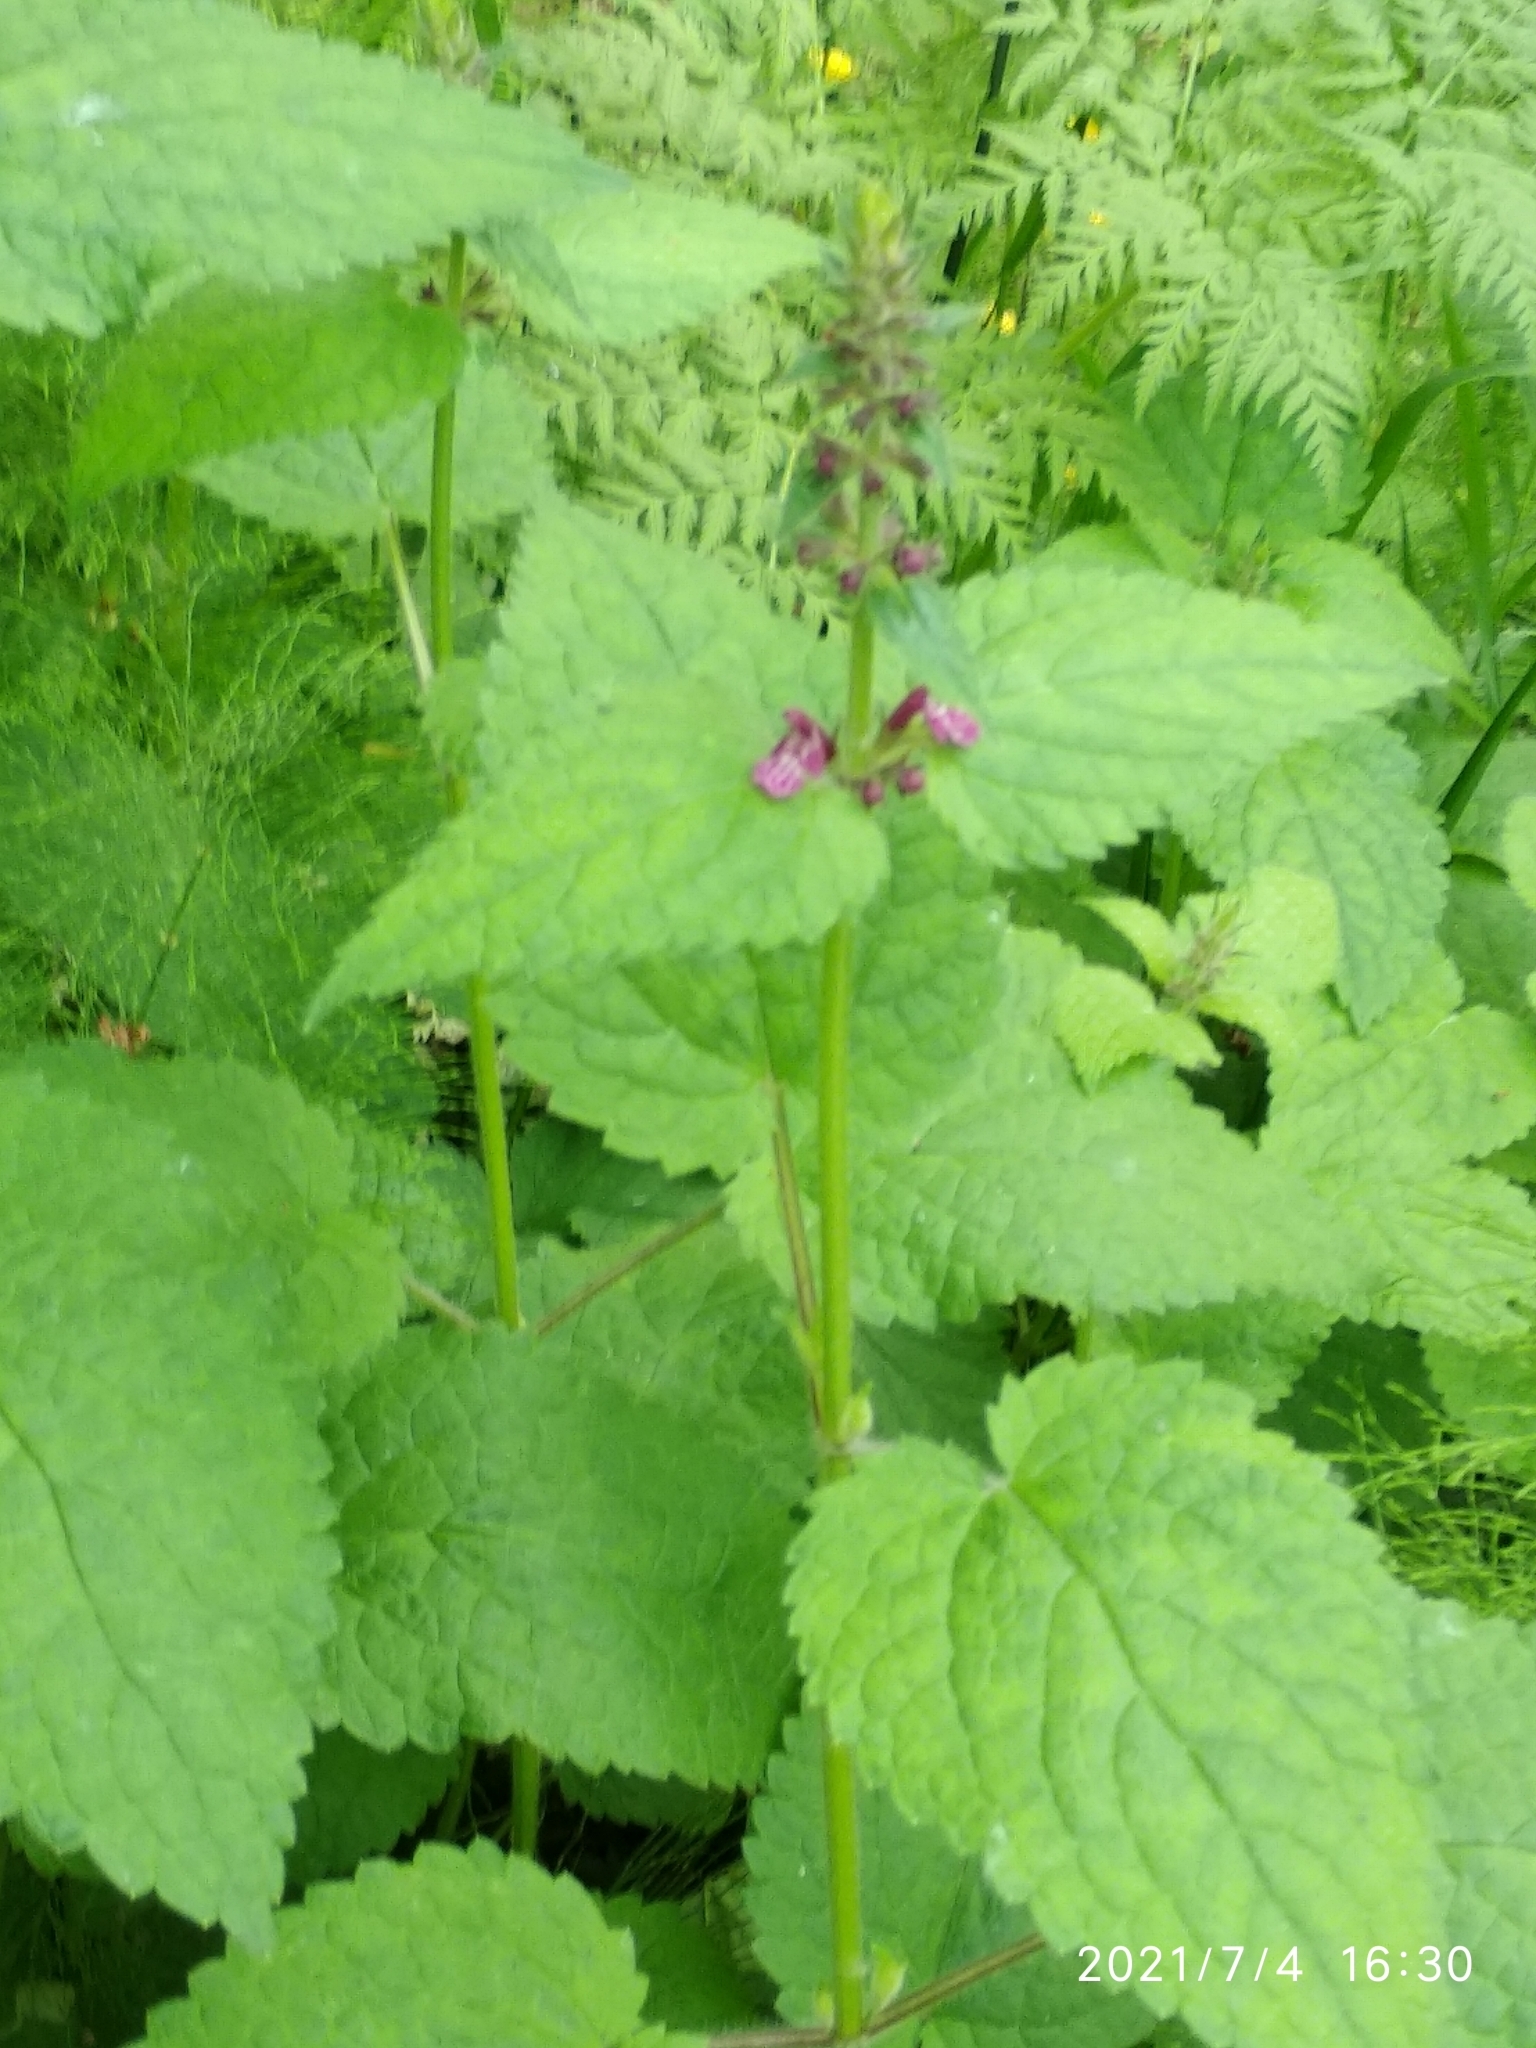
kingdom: Plantae
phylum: Tracheophyta
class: Magnoliopsida
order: Lamiales
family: Lamiaceae
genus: Stachys
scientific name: Stachys sylvatica
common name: Hedge woundwort
